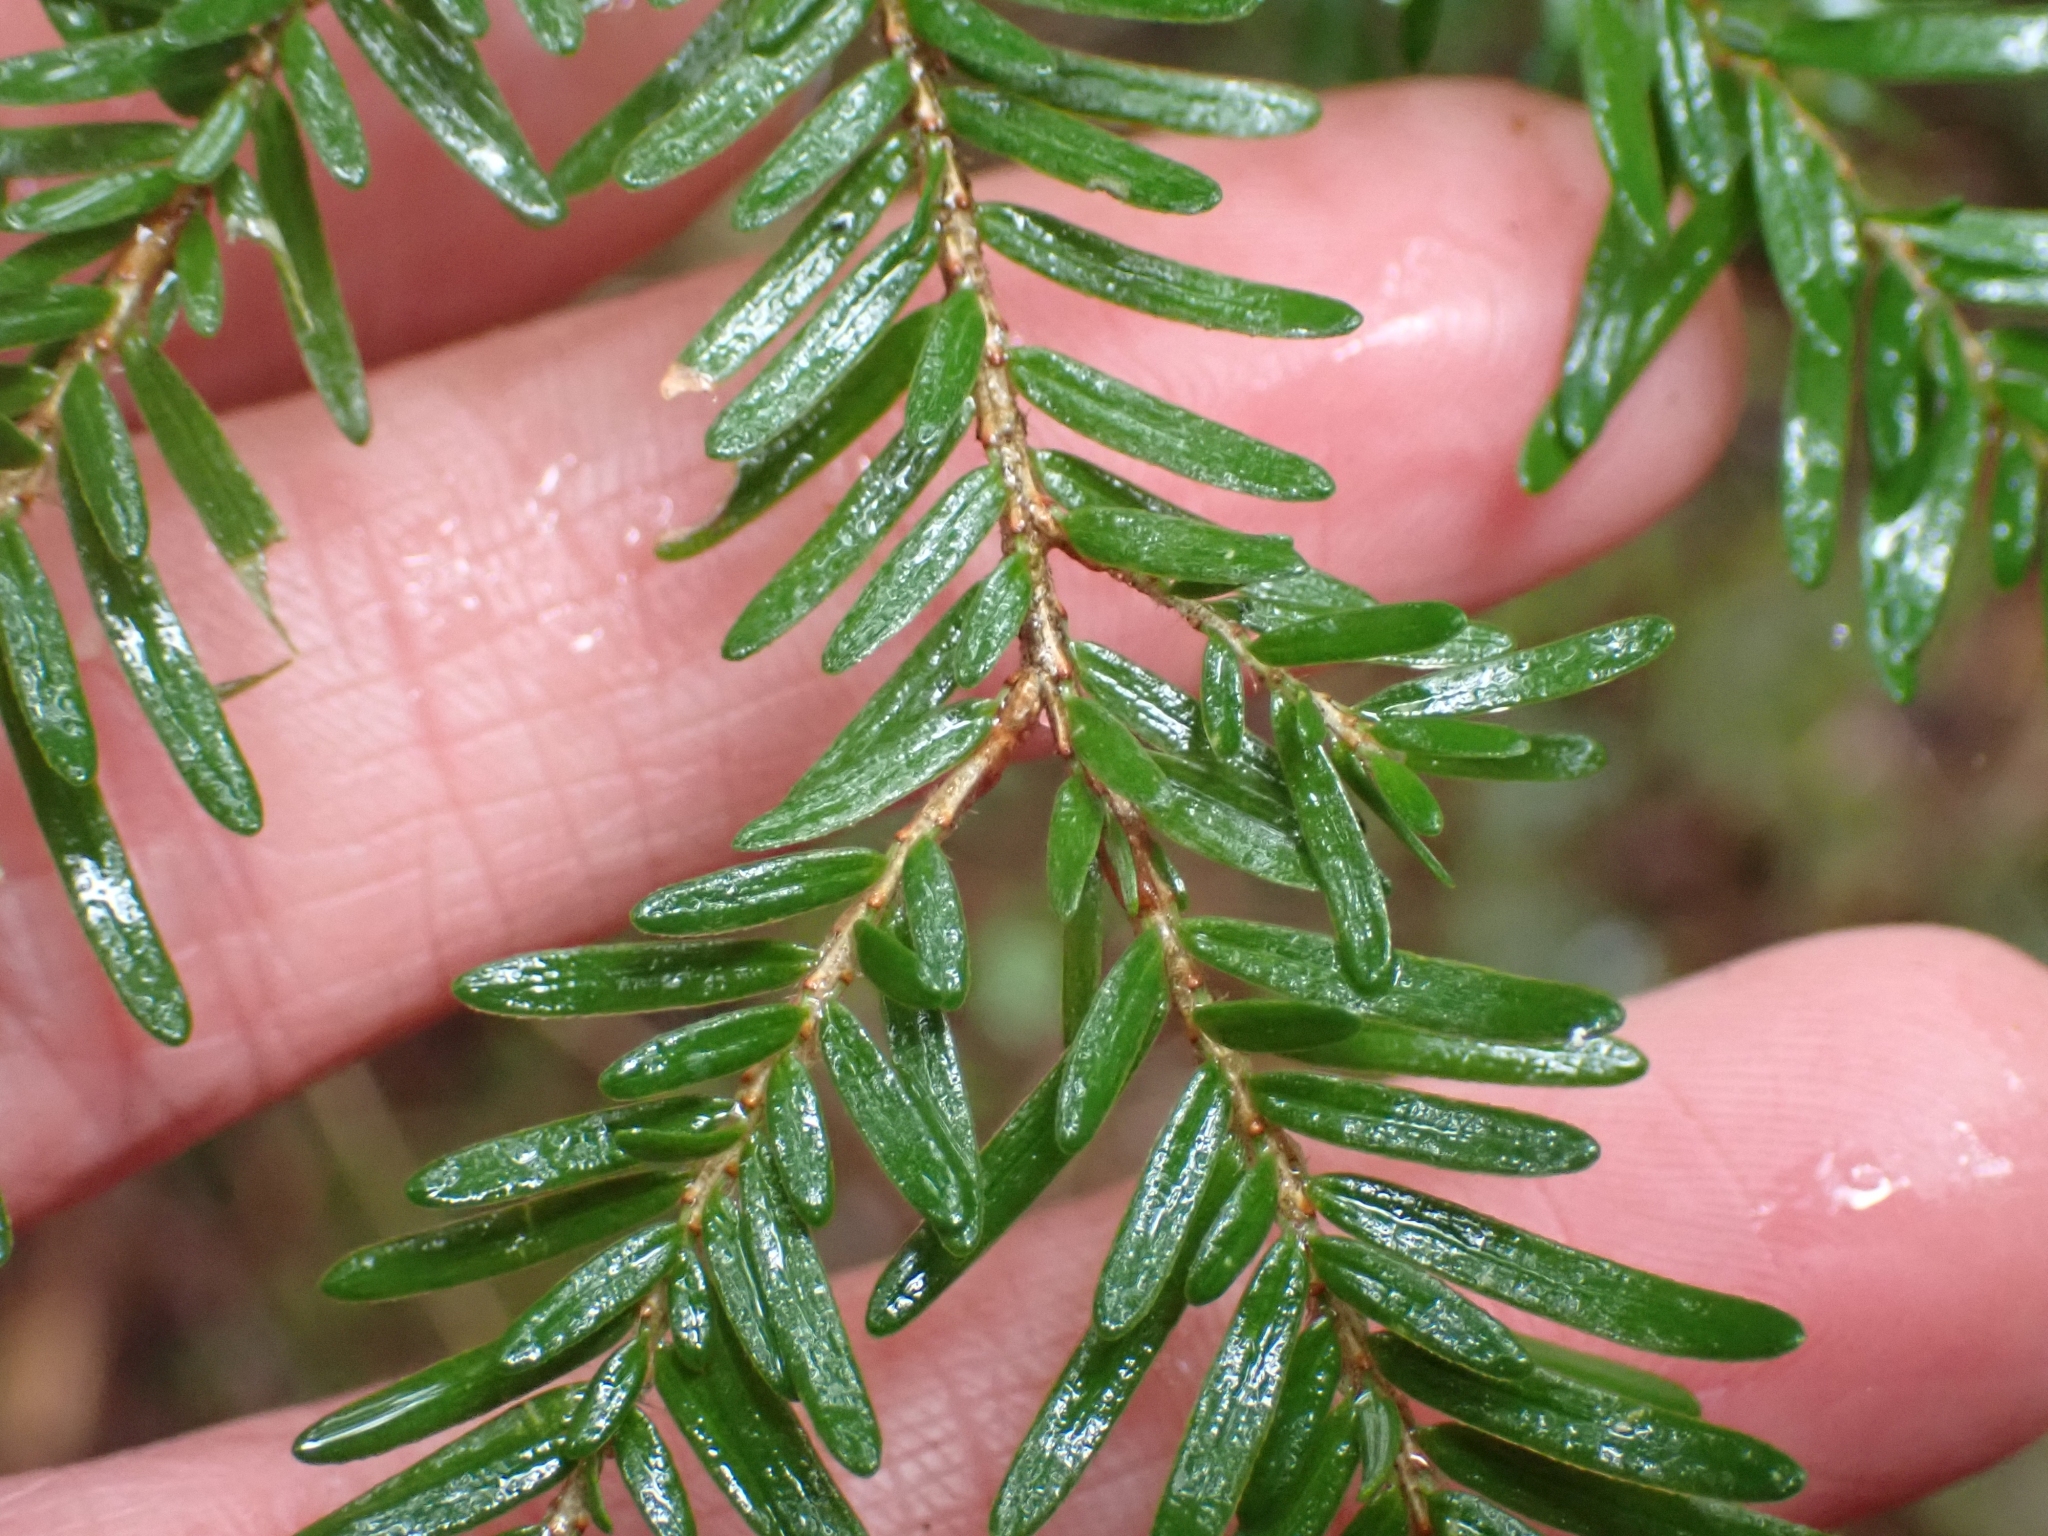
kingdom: Plantae
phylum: Tracheophyta
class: Pinopsida
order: Pinales
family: Pinaceae
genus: Tsuga
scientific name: Tsuga heterophylla
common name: Western hemlock
